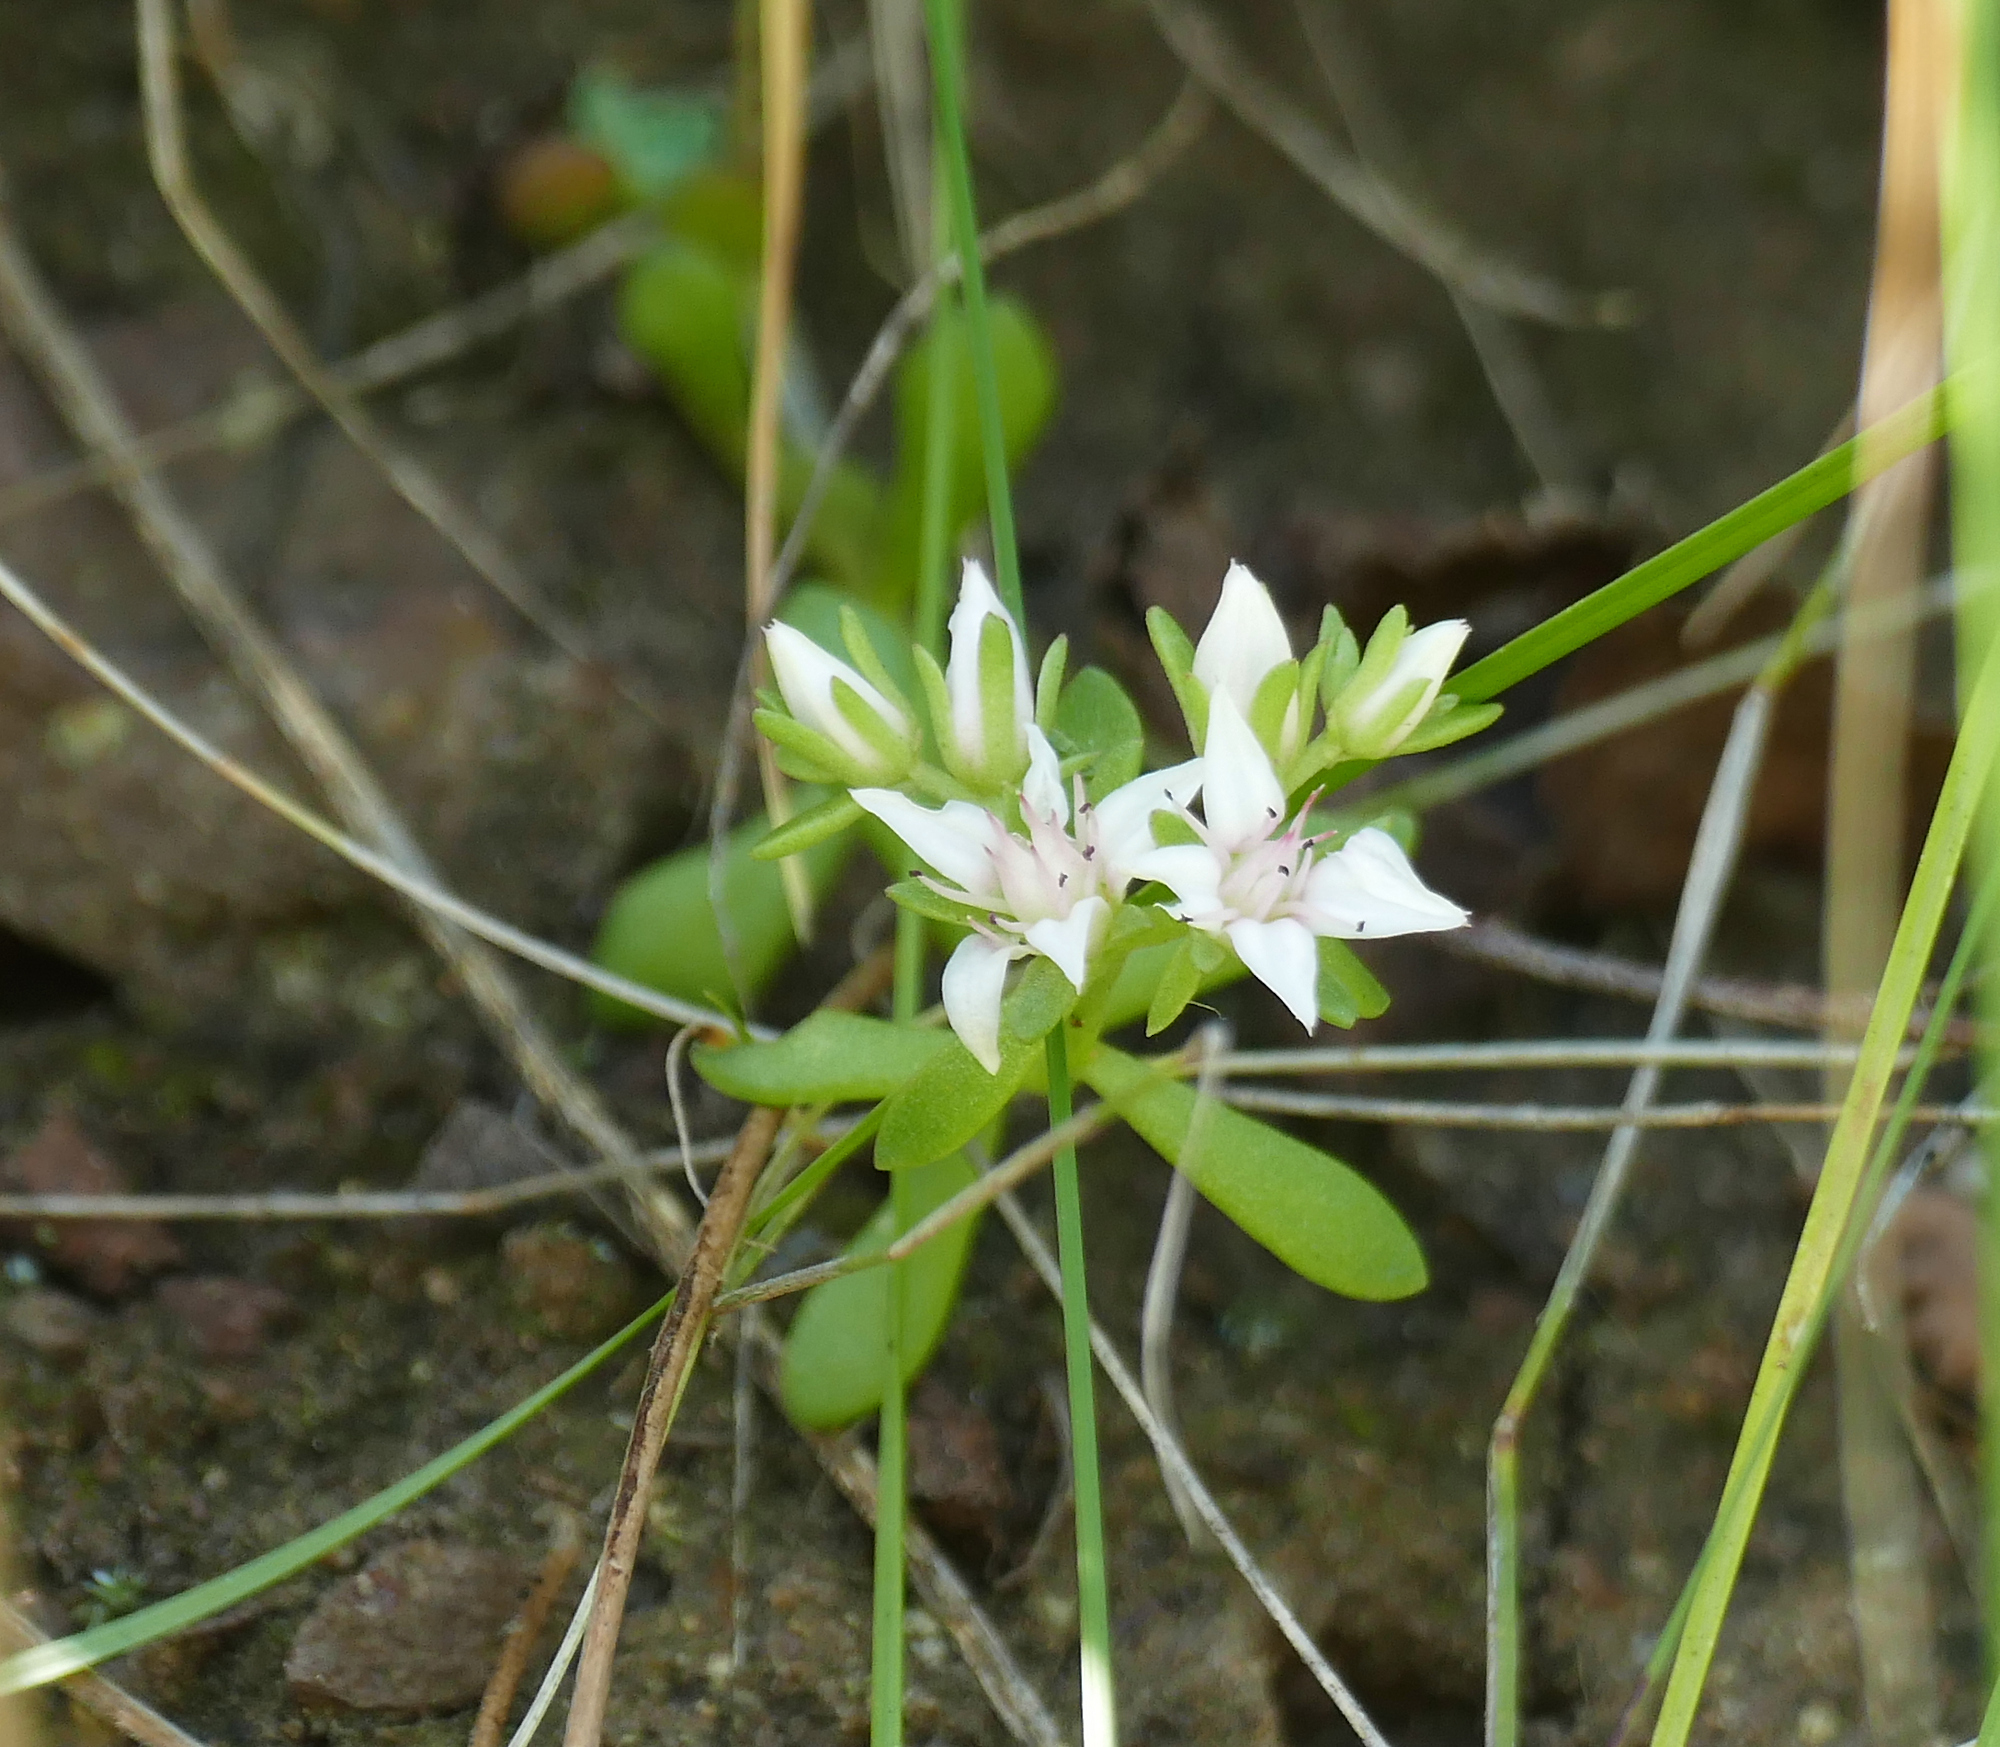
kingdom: Plantae
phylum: Tracheophyta
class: Magnoliopsida
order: Saxifragales
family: Crassulaceae
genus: Sedum
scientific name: Sedum cockerellii
